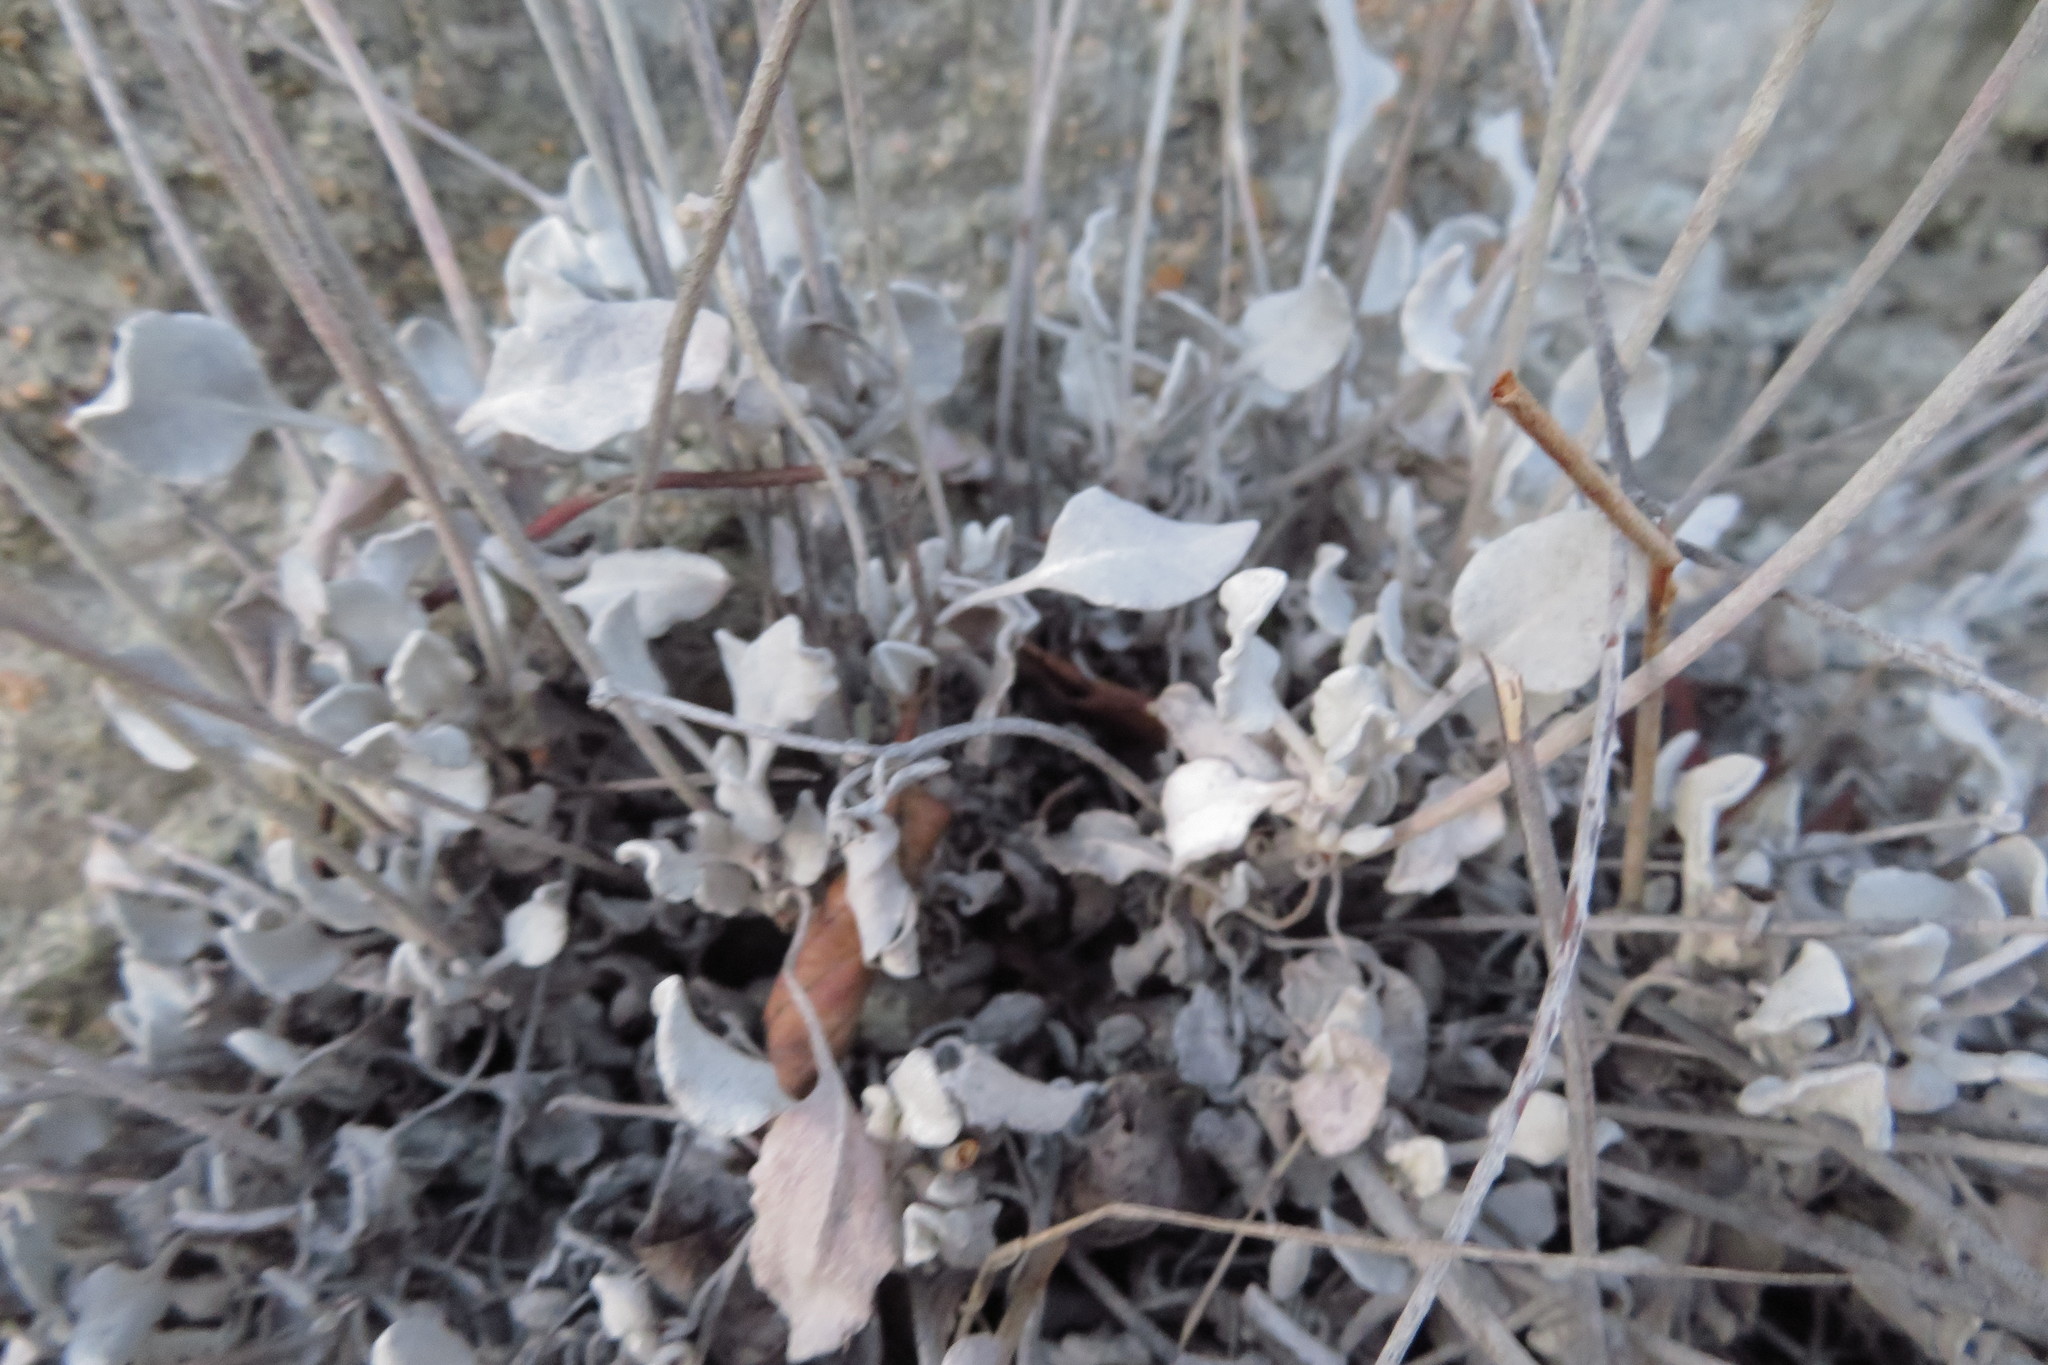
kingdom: Plantae
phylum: Tracheophyta
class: Magnoliopsida
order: Caryophyllales
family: Polygonaceae
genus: Eriogonum
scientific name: Eriogonum niveum
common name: Snow wild buckwheat
